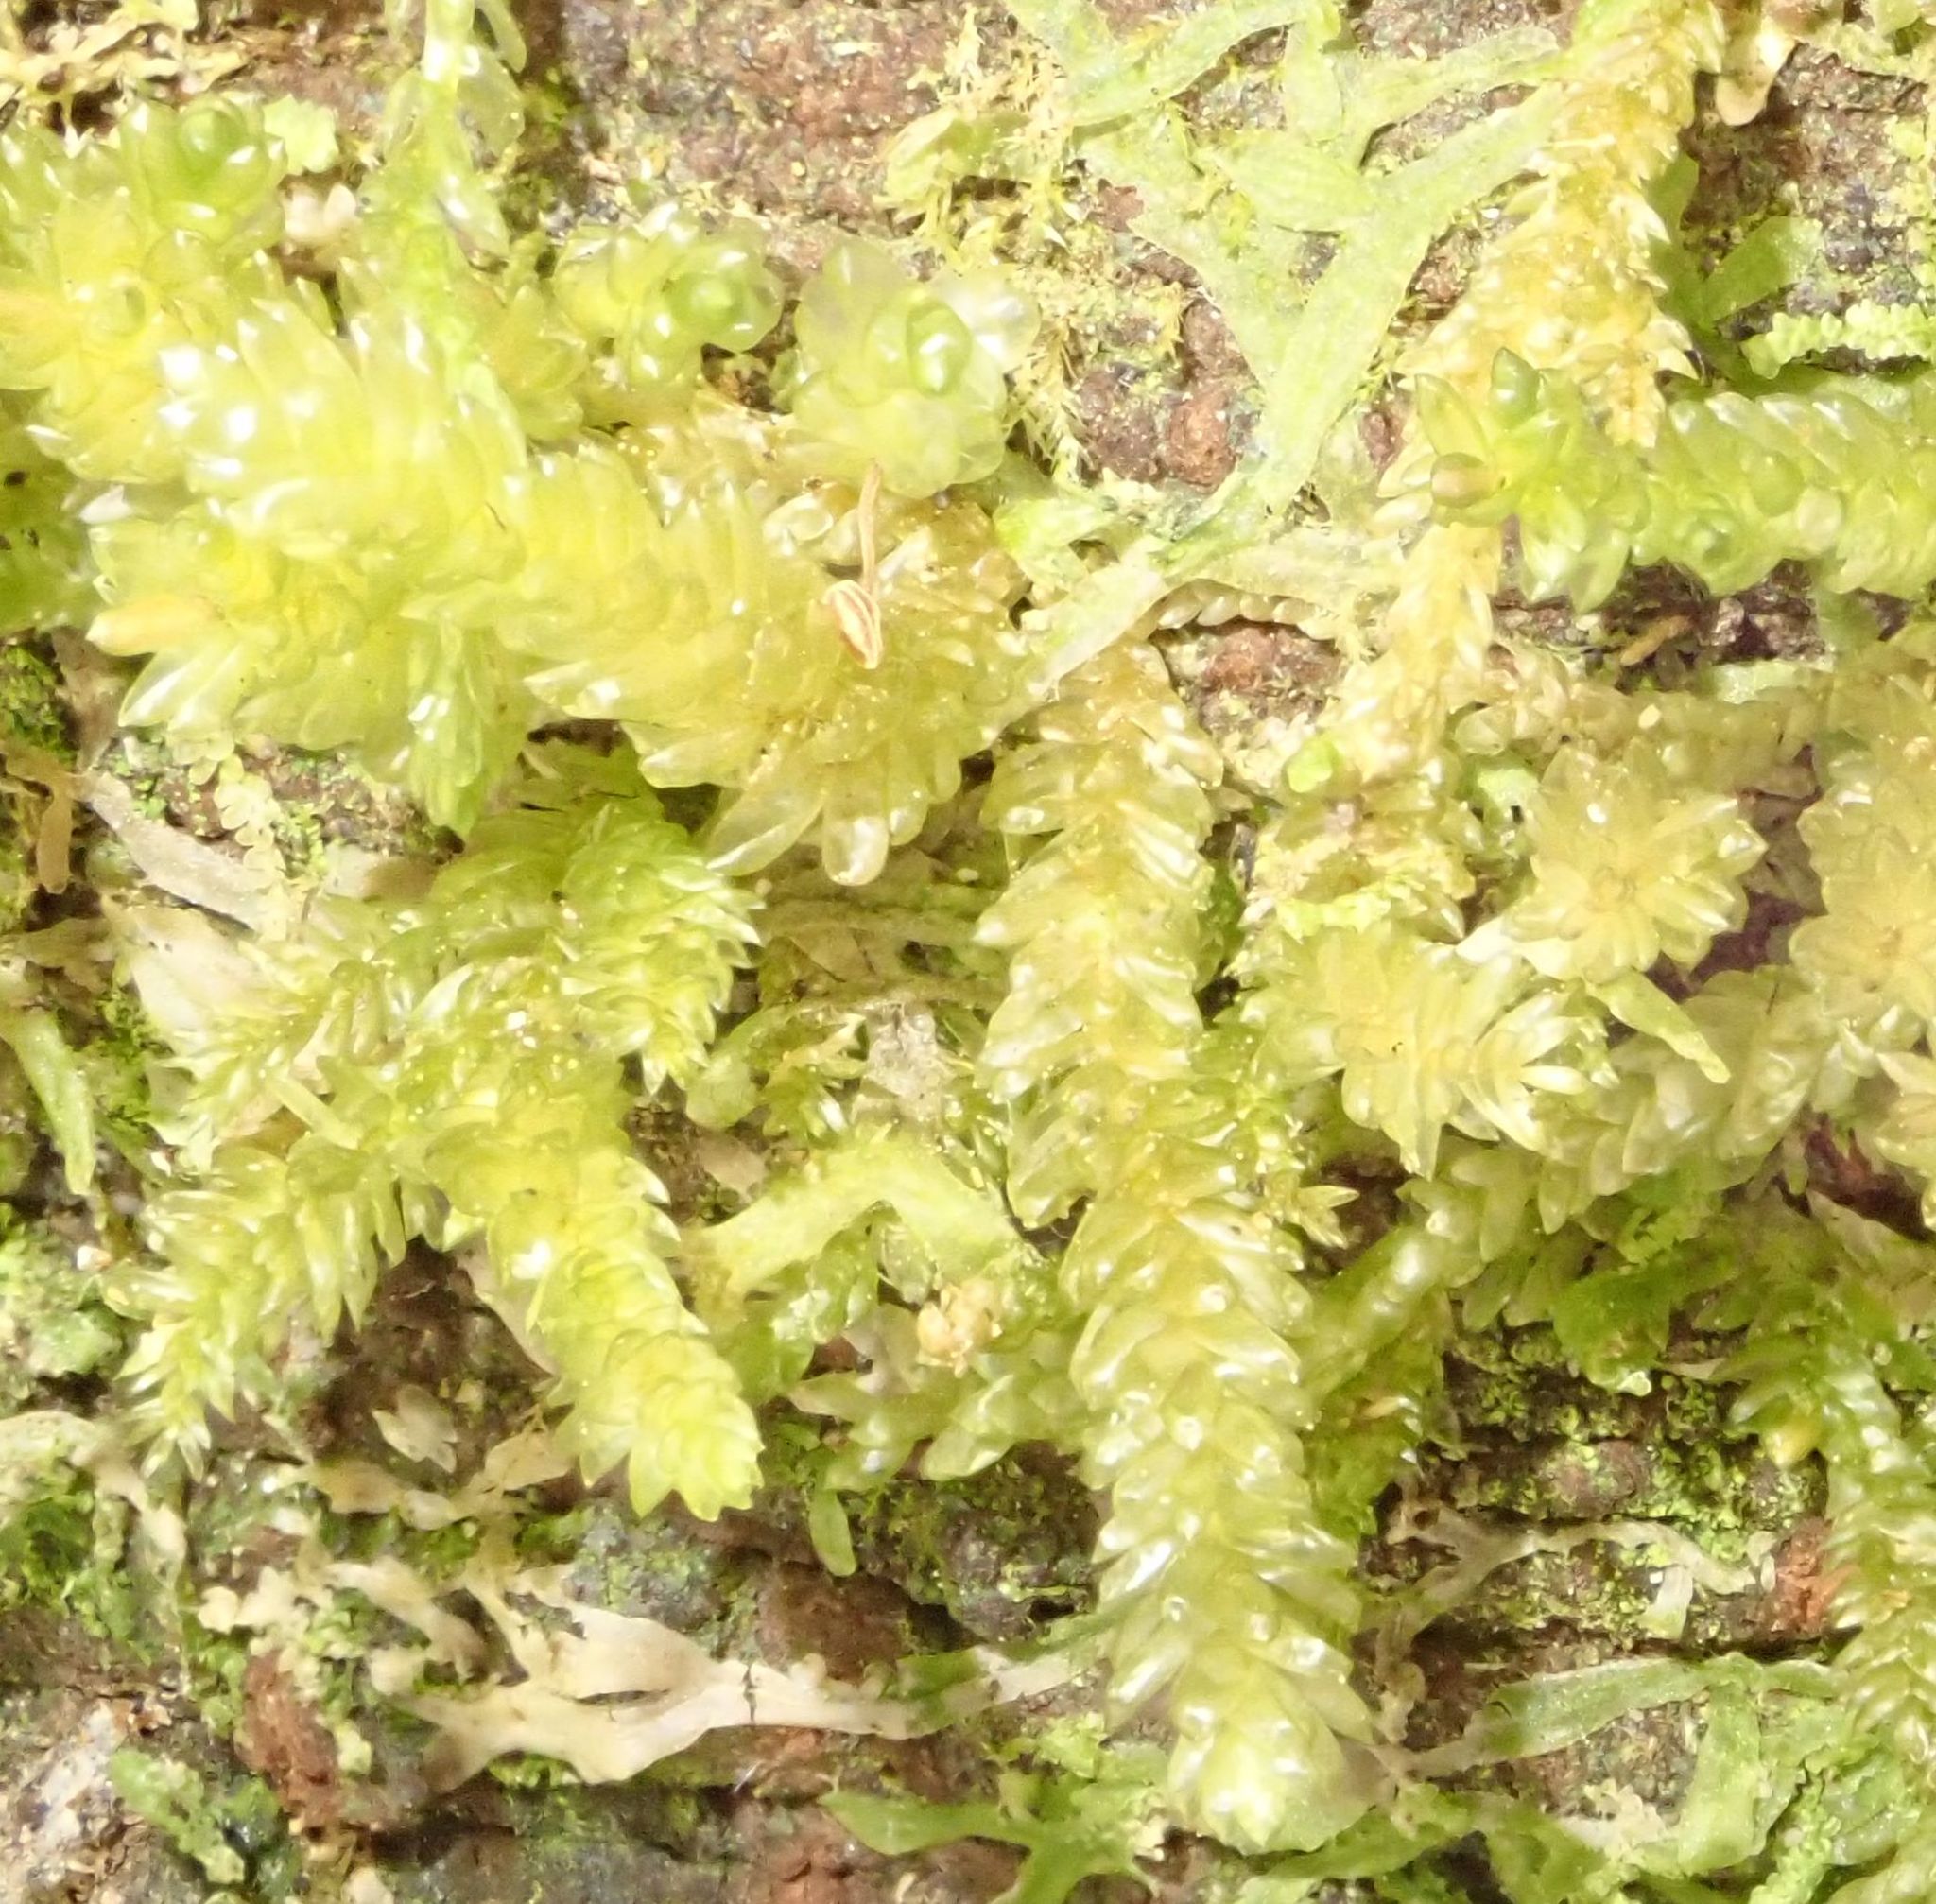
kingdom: Plantae
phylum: Bryophyta
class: Bryopsida
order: Hypnales
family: Lembophyllaceae
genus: Weymouthia
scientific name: Weymouthia cochlearifolia
